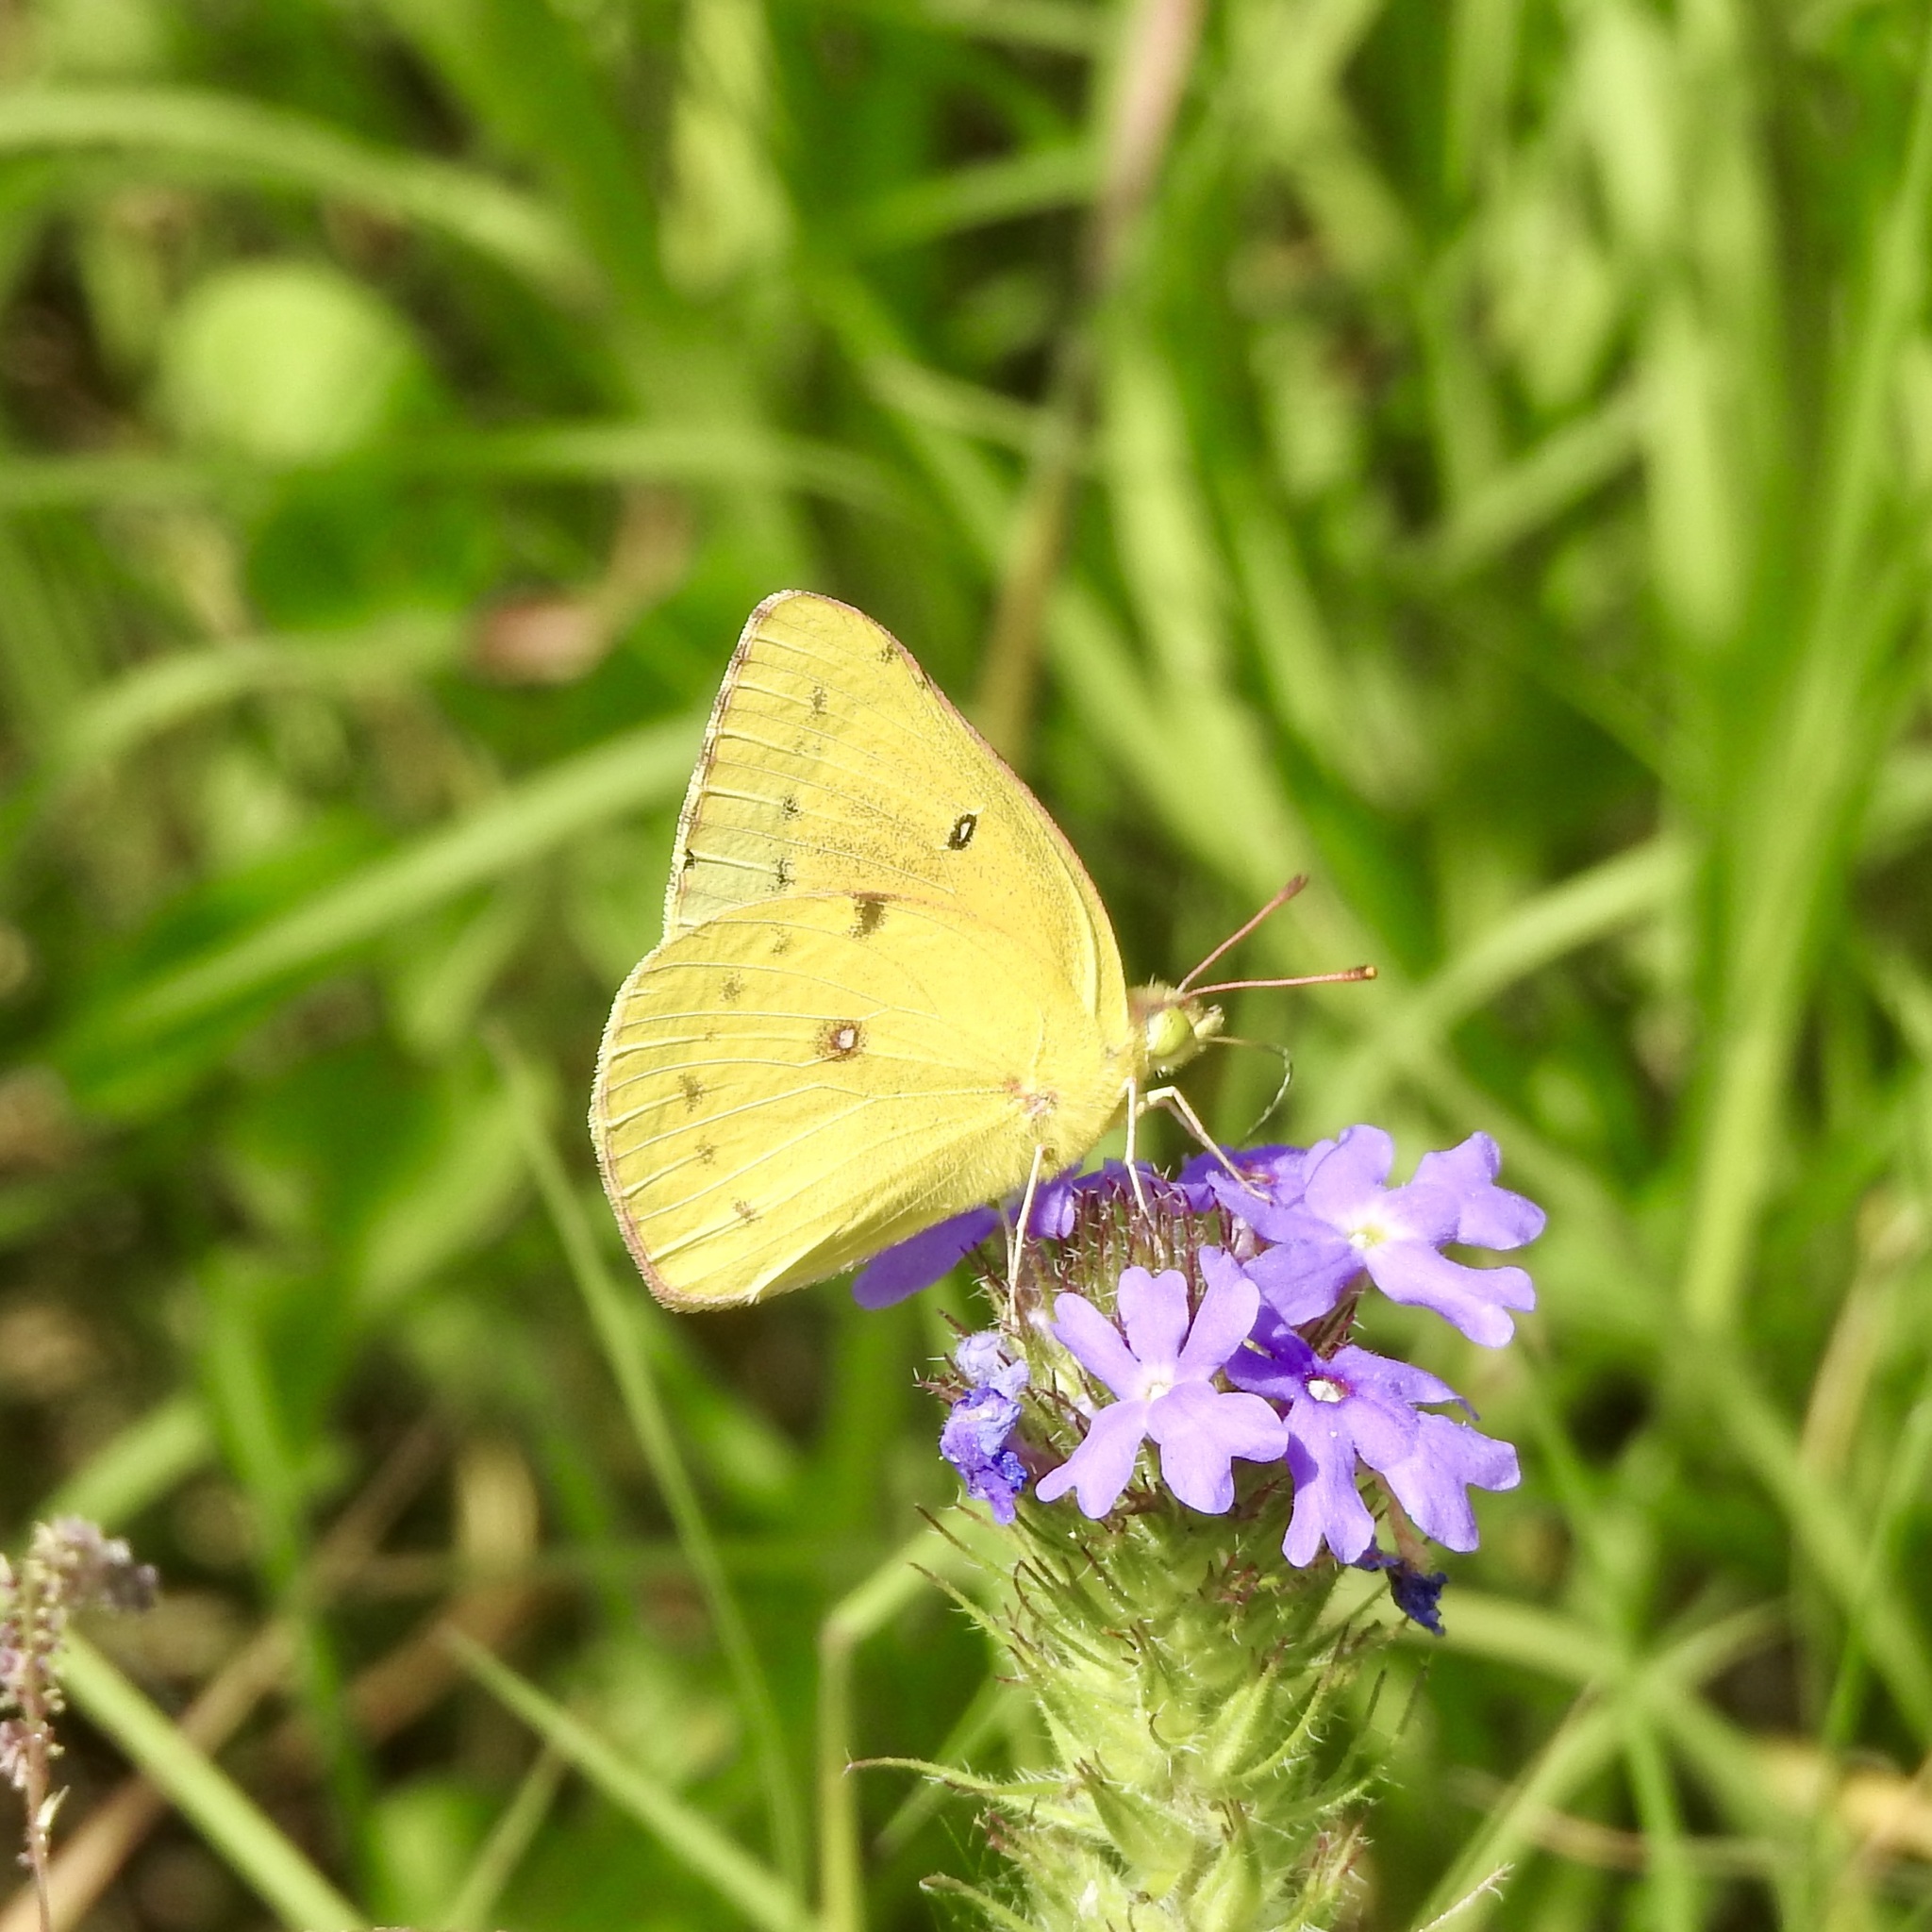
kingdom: Animalia
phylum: Arthropoda
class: Insecta
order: Lepidoptera
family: Pieridae
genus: Colias
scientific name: Colias eurytheme
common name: Alfalfa butterfly
